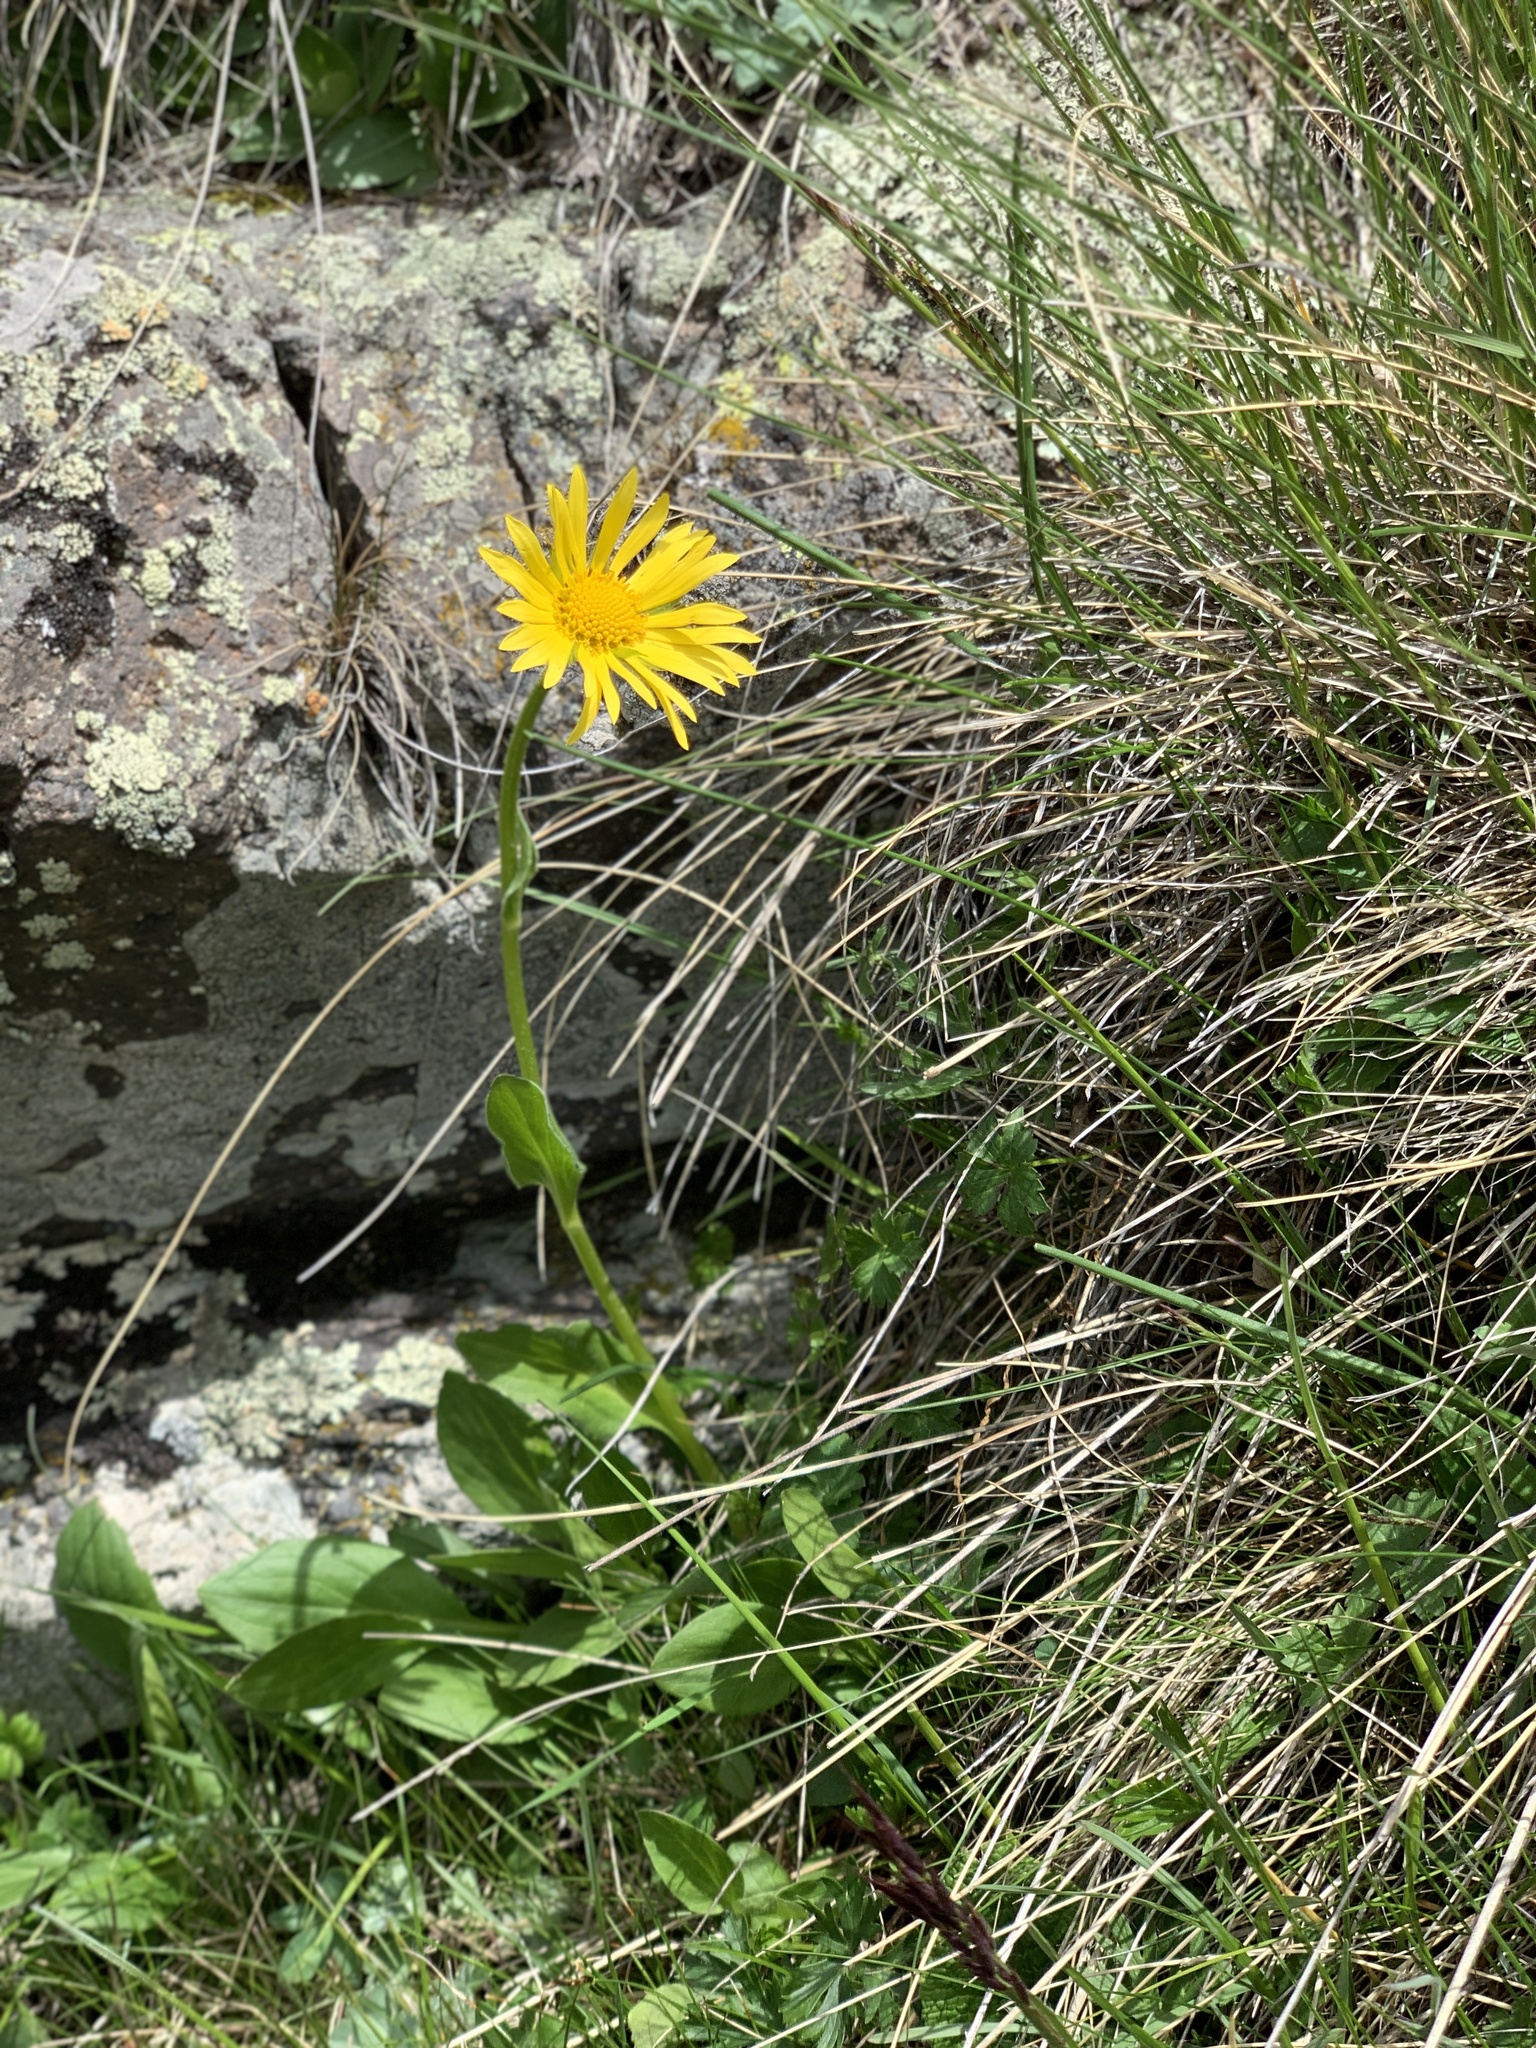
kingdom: Plantae
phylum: Tracheophyta
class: Magnoliopsida
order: Asterales
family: Asteraceae
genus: Doronicum
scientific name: Doronicum
